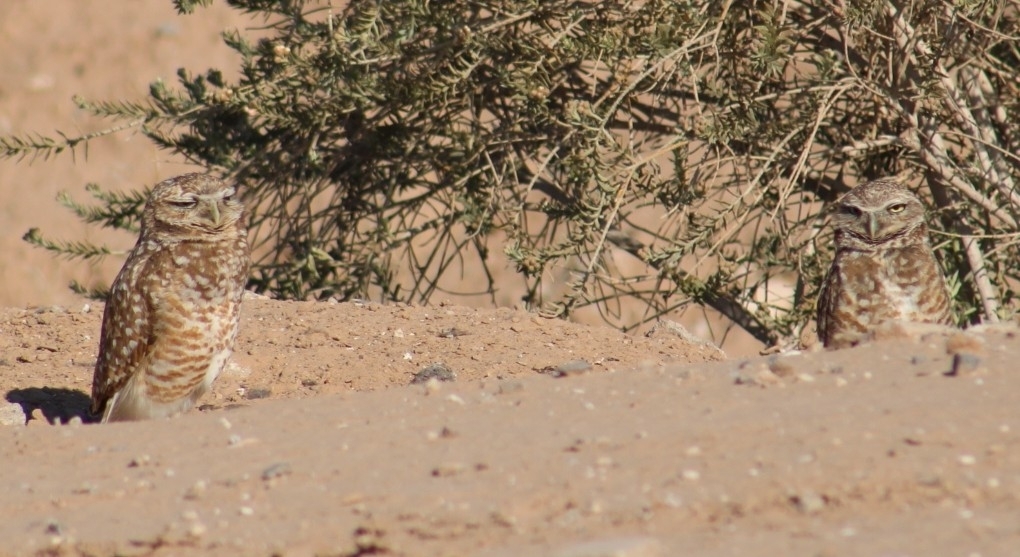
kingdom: Animalia
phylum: Chordata
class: Aves
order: Strigiformes
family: Strigidae
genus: Athene
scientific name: Athene cunicularia
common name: Burrowing owl
